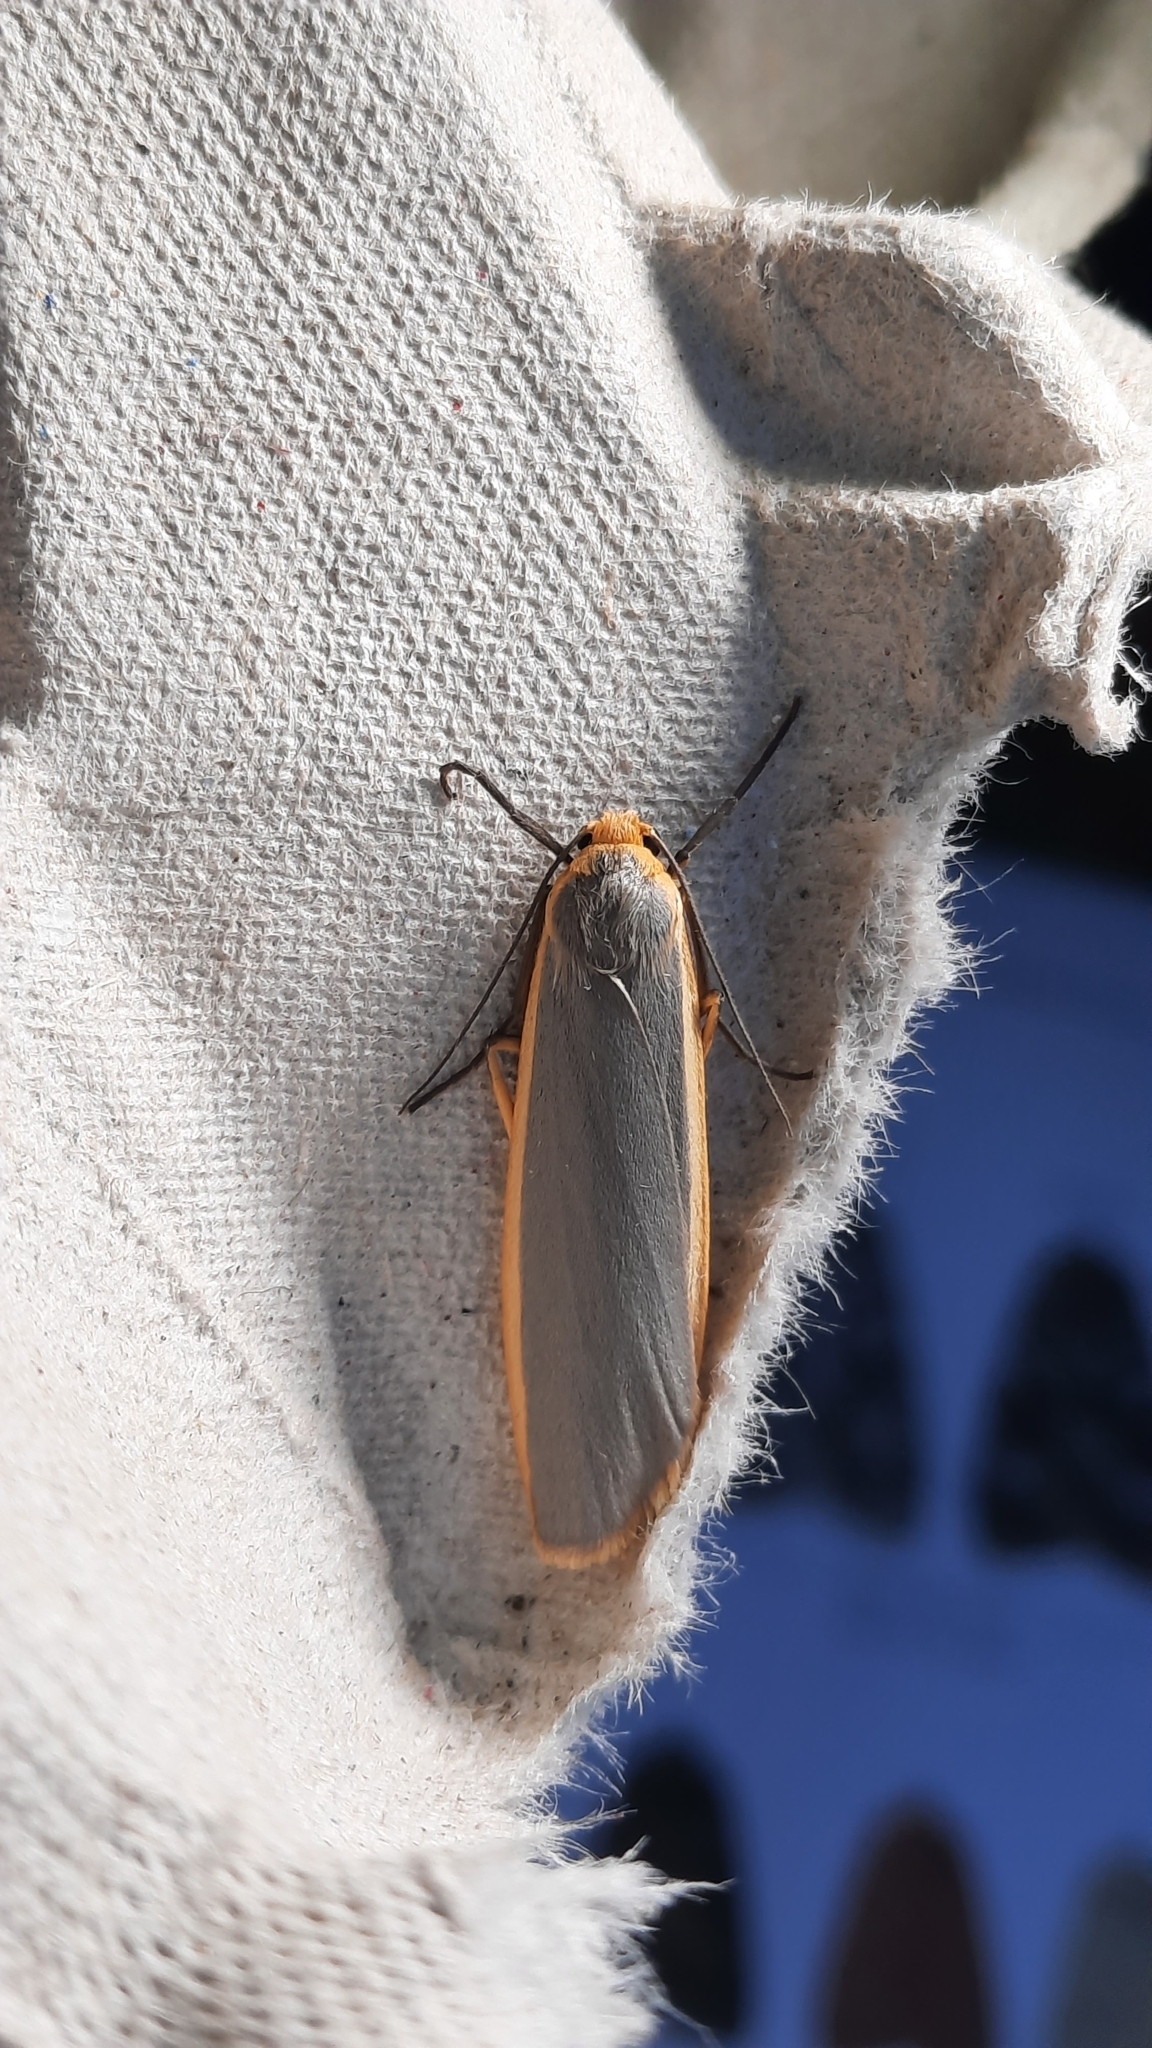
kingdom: Animalia
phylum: Arthropoda
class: Insecta
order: Lepidoptera
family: Erebidae
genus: Nyea
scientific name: Nyea lurideola
